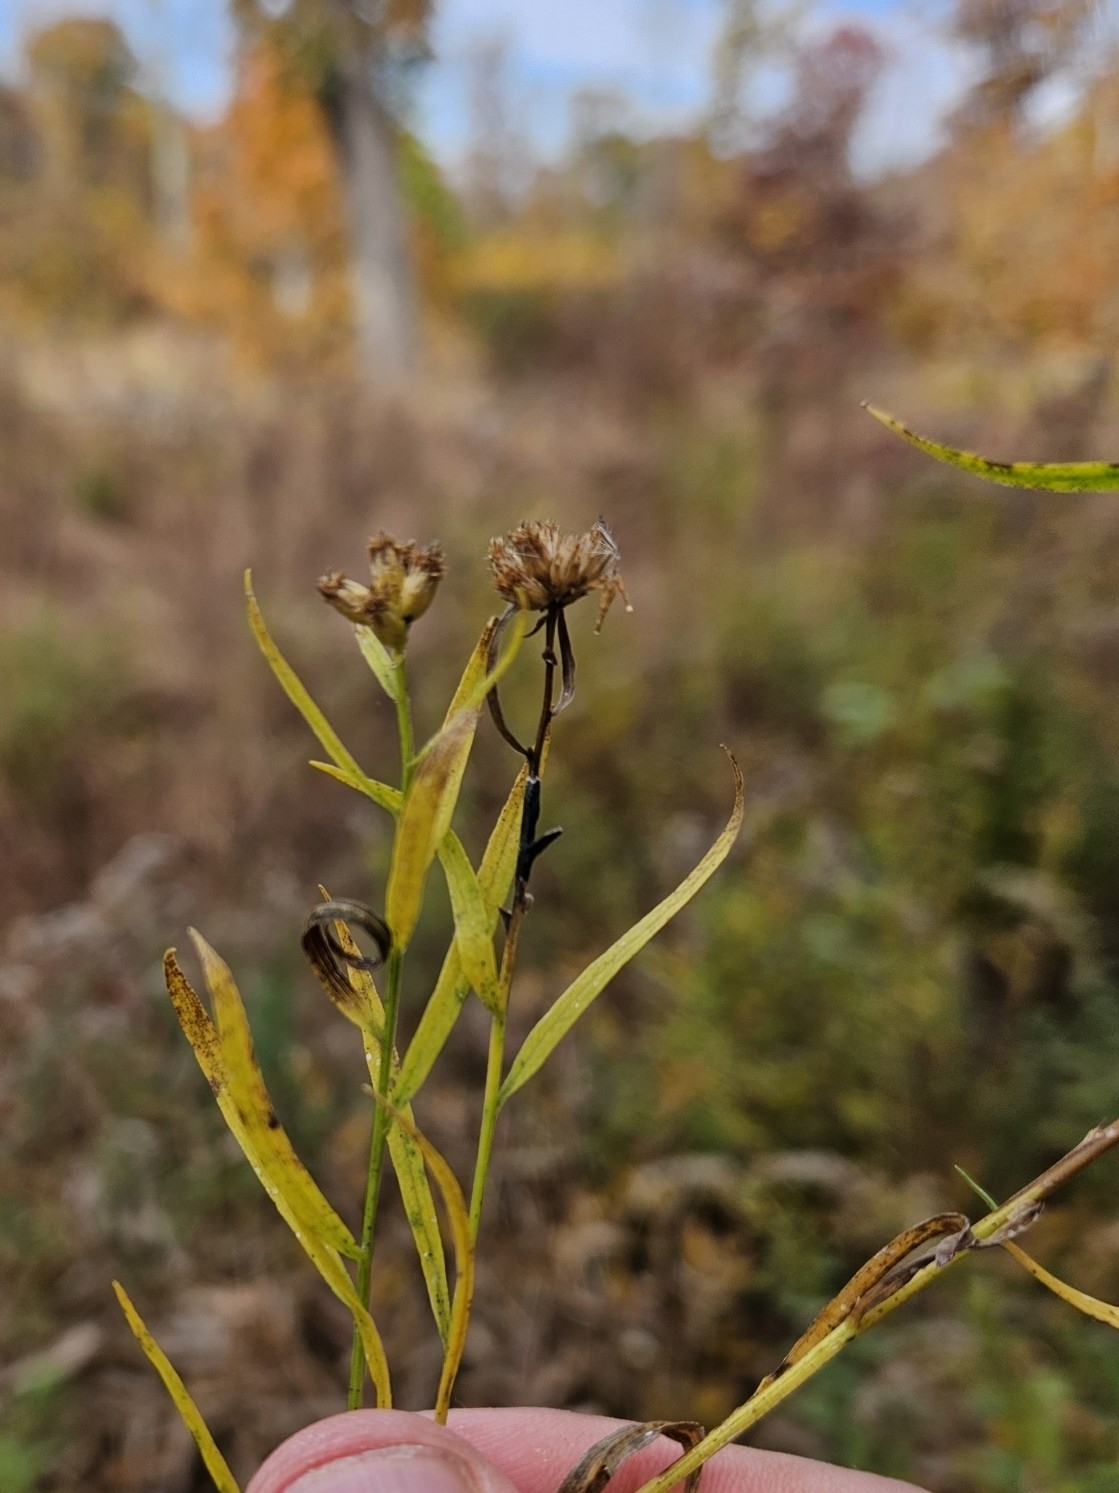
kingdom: Animalia
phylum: Arthropoda
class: Insecta
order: Diptera
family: Cecidomyiidae
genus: Asteromyia
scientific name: Asteromyia euthamiae
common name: Euthamia leaf gall midge
